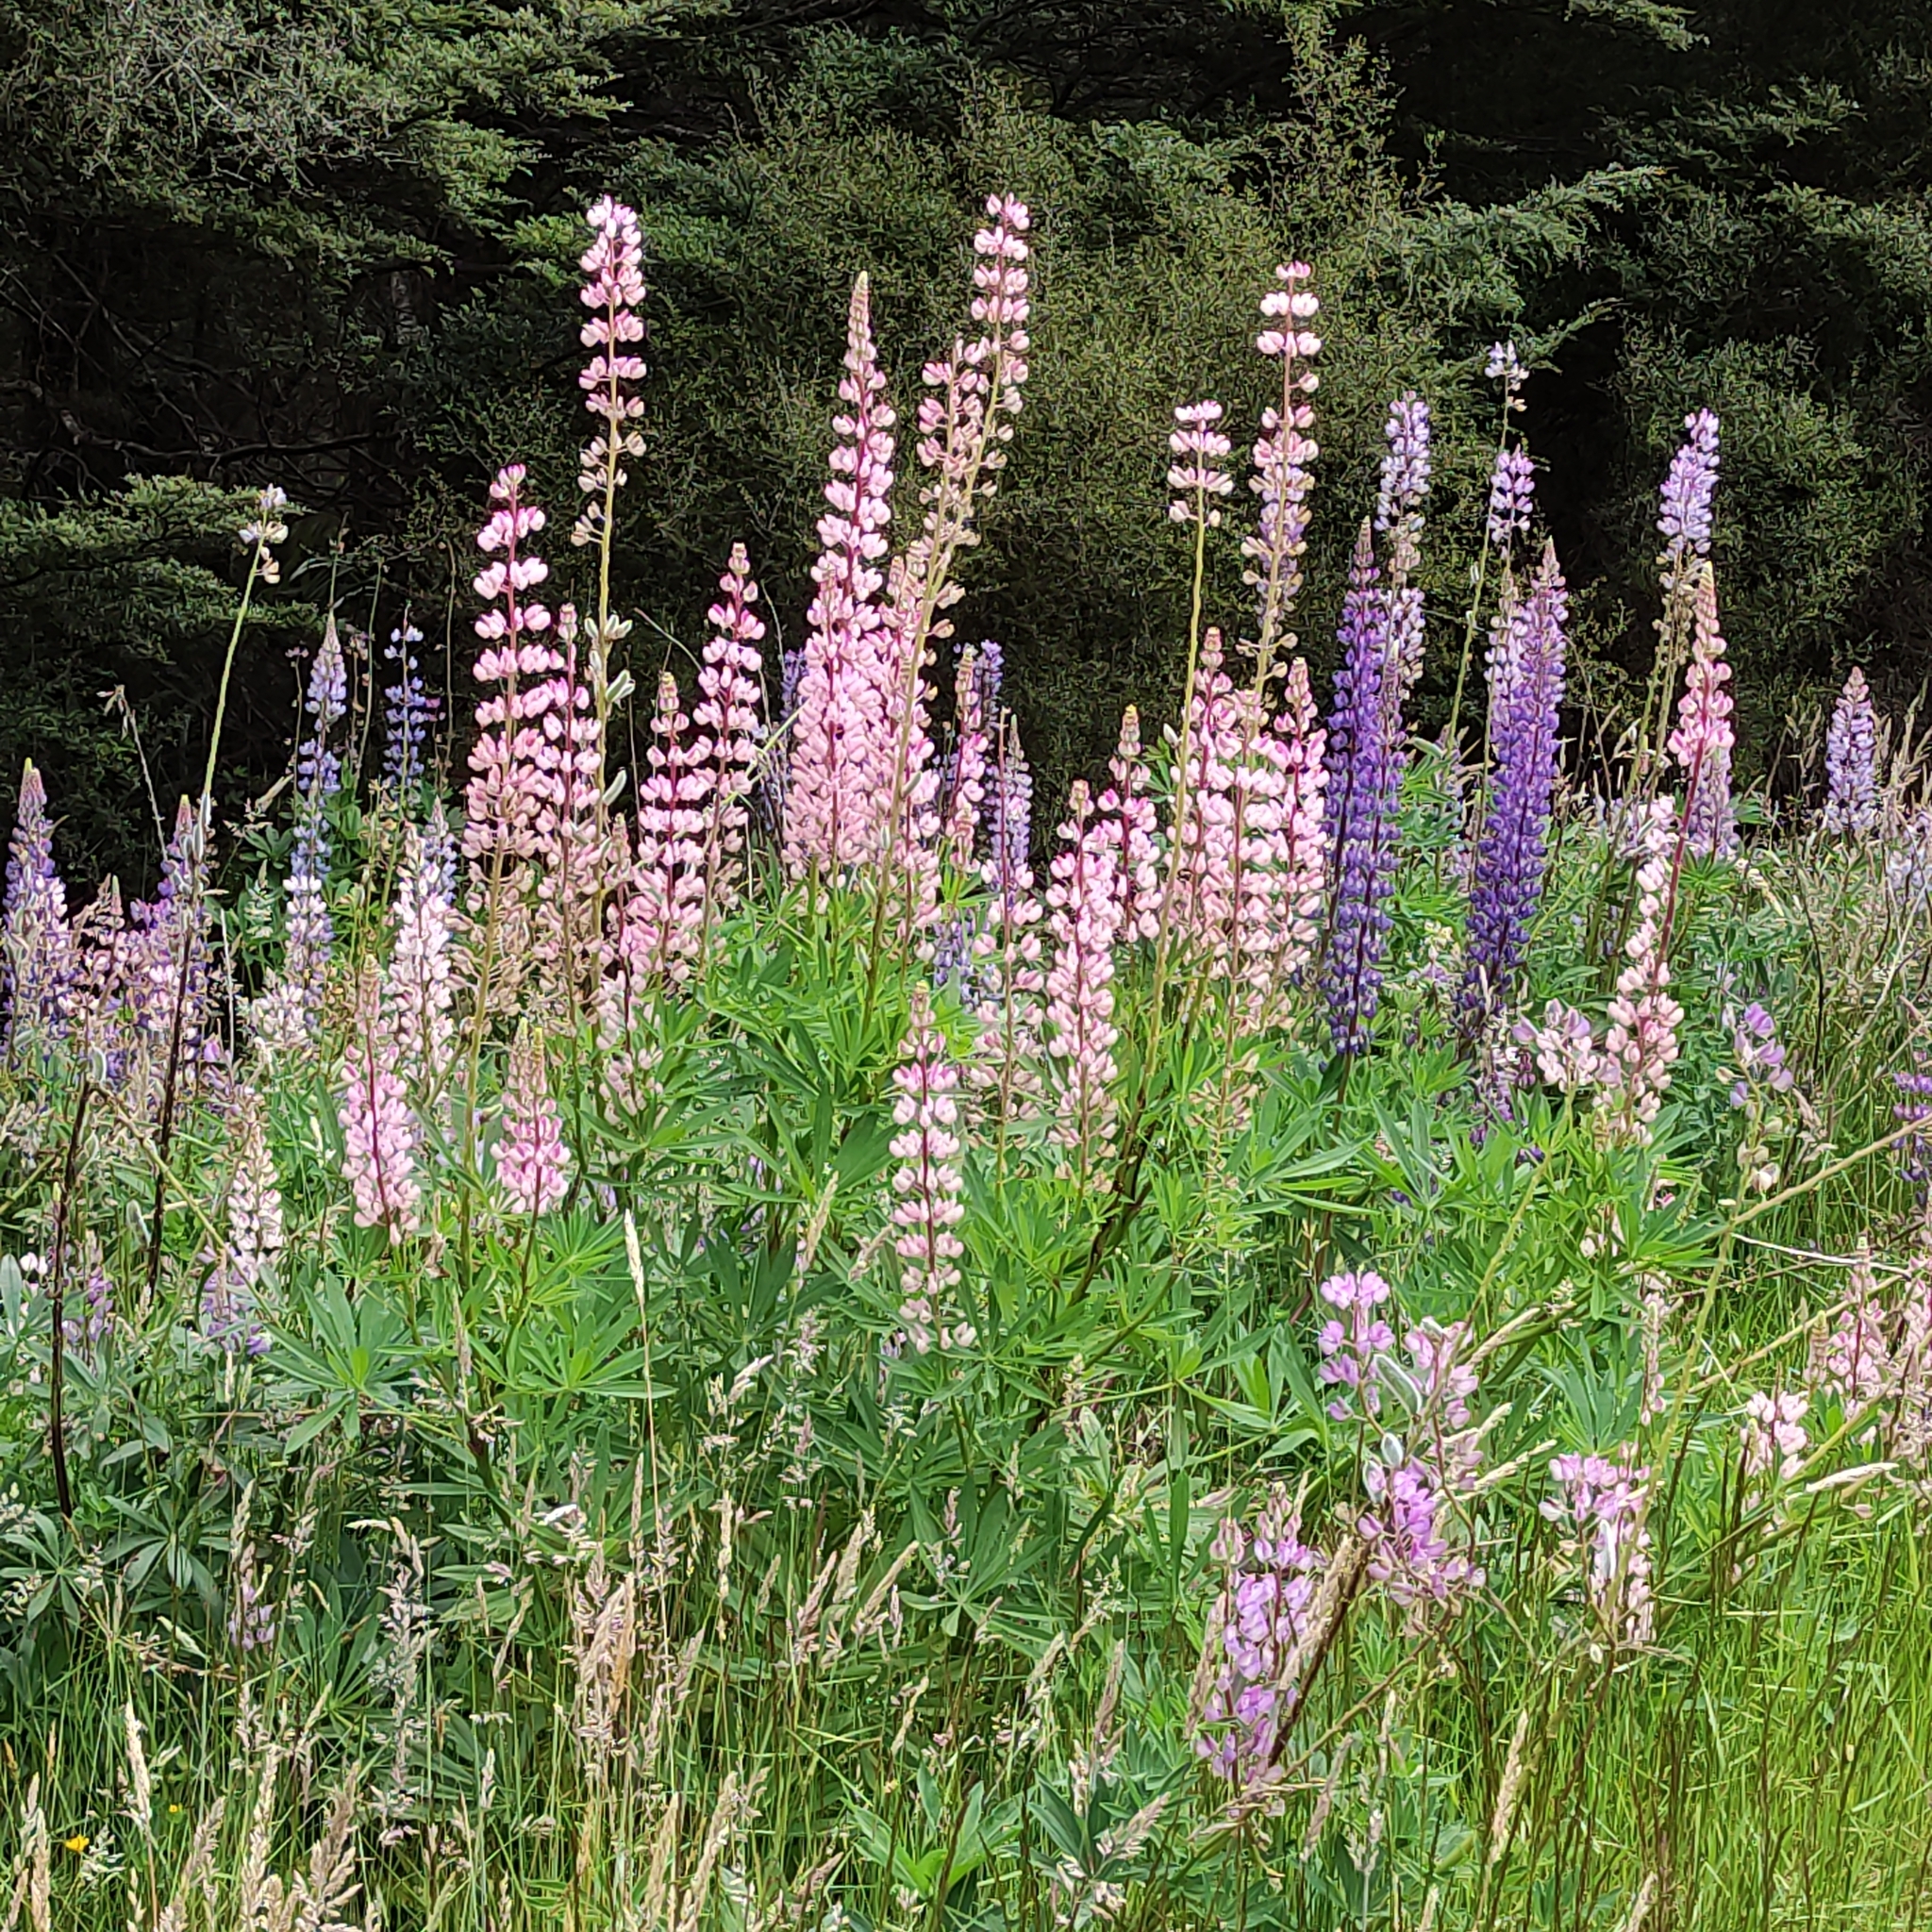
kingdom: Plantae
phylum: Tracheophyta
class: Magnoliopsida
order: Fabales
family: Fabaceae
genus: Lupinus
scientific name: Lupinus polyphyllus
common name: Garden lupin
